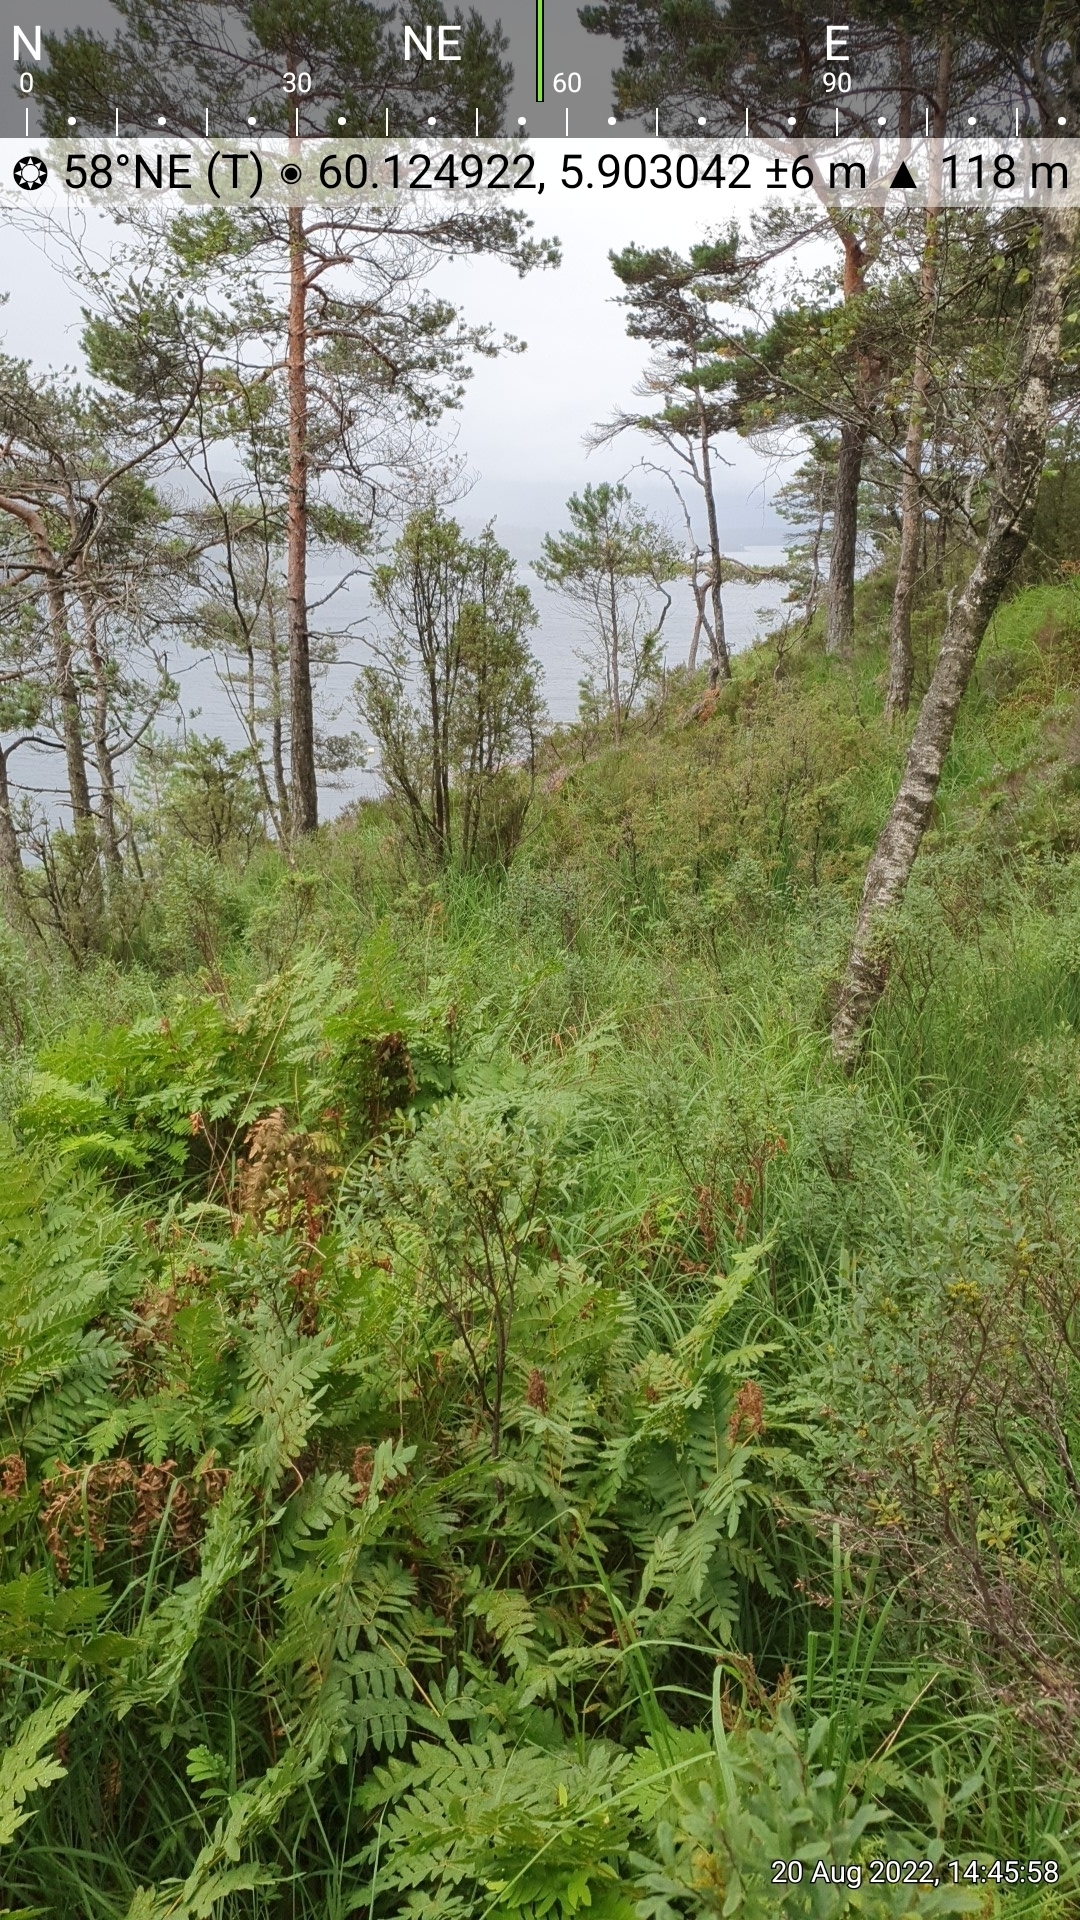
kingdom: Plantae
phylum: Tracheophyta
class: Polypodiopsida
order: Osmundales
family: Osmundaceae
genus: Osmunda
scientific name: Osmunda regalis
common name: Royal fern
